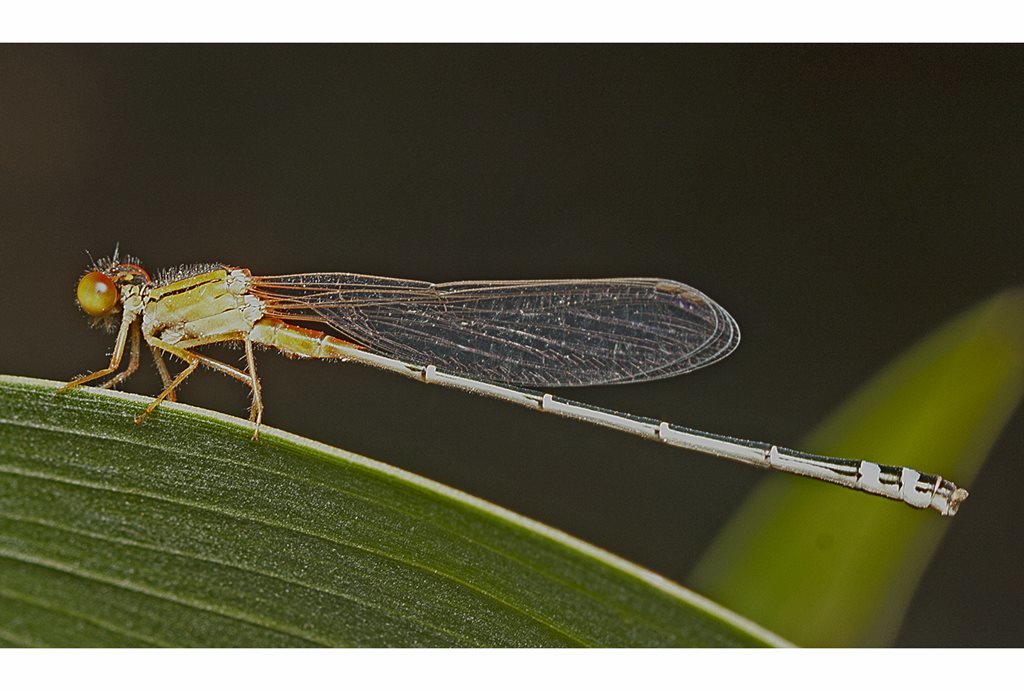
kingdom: Animalia
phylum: Arthropoda
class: Insecta
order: Odonata
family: Coenagrionidae
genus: Xanthagrion
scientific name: Xanthagrion erythroneurum
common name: Red and blue damsel
